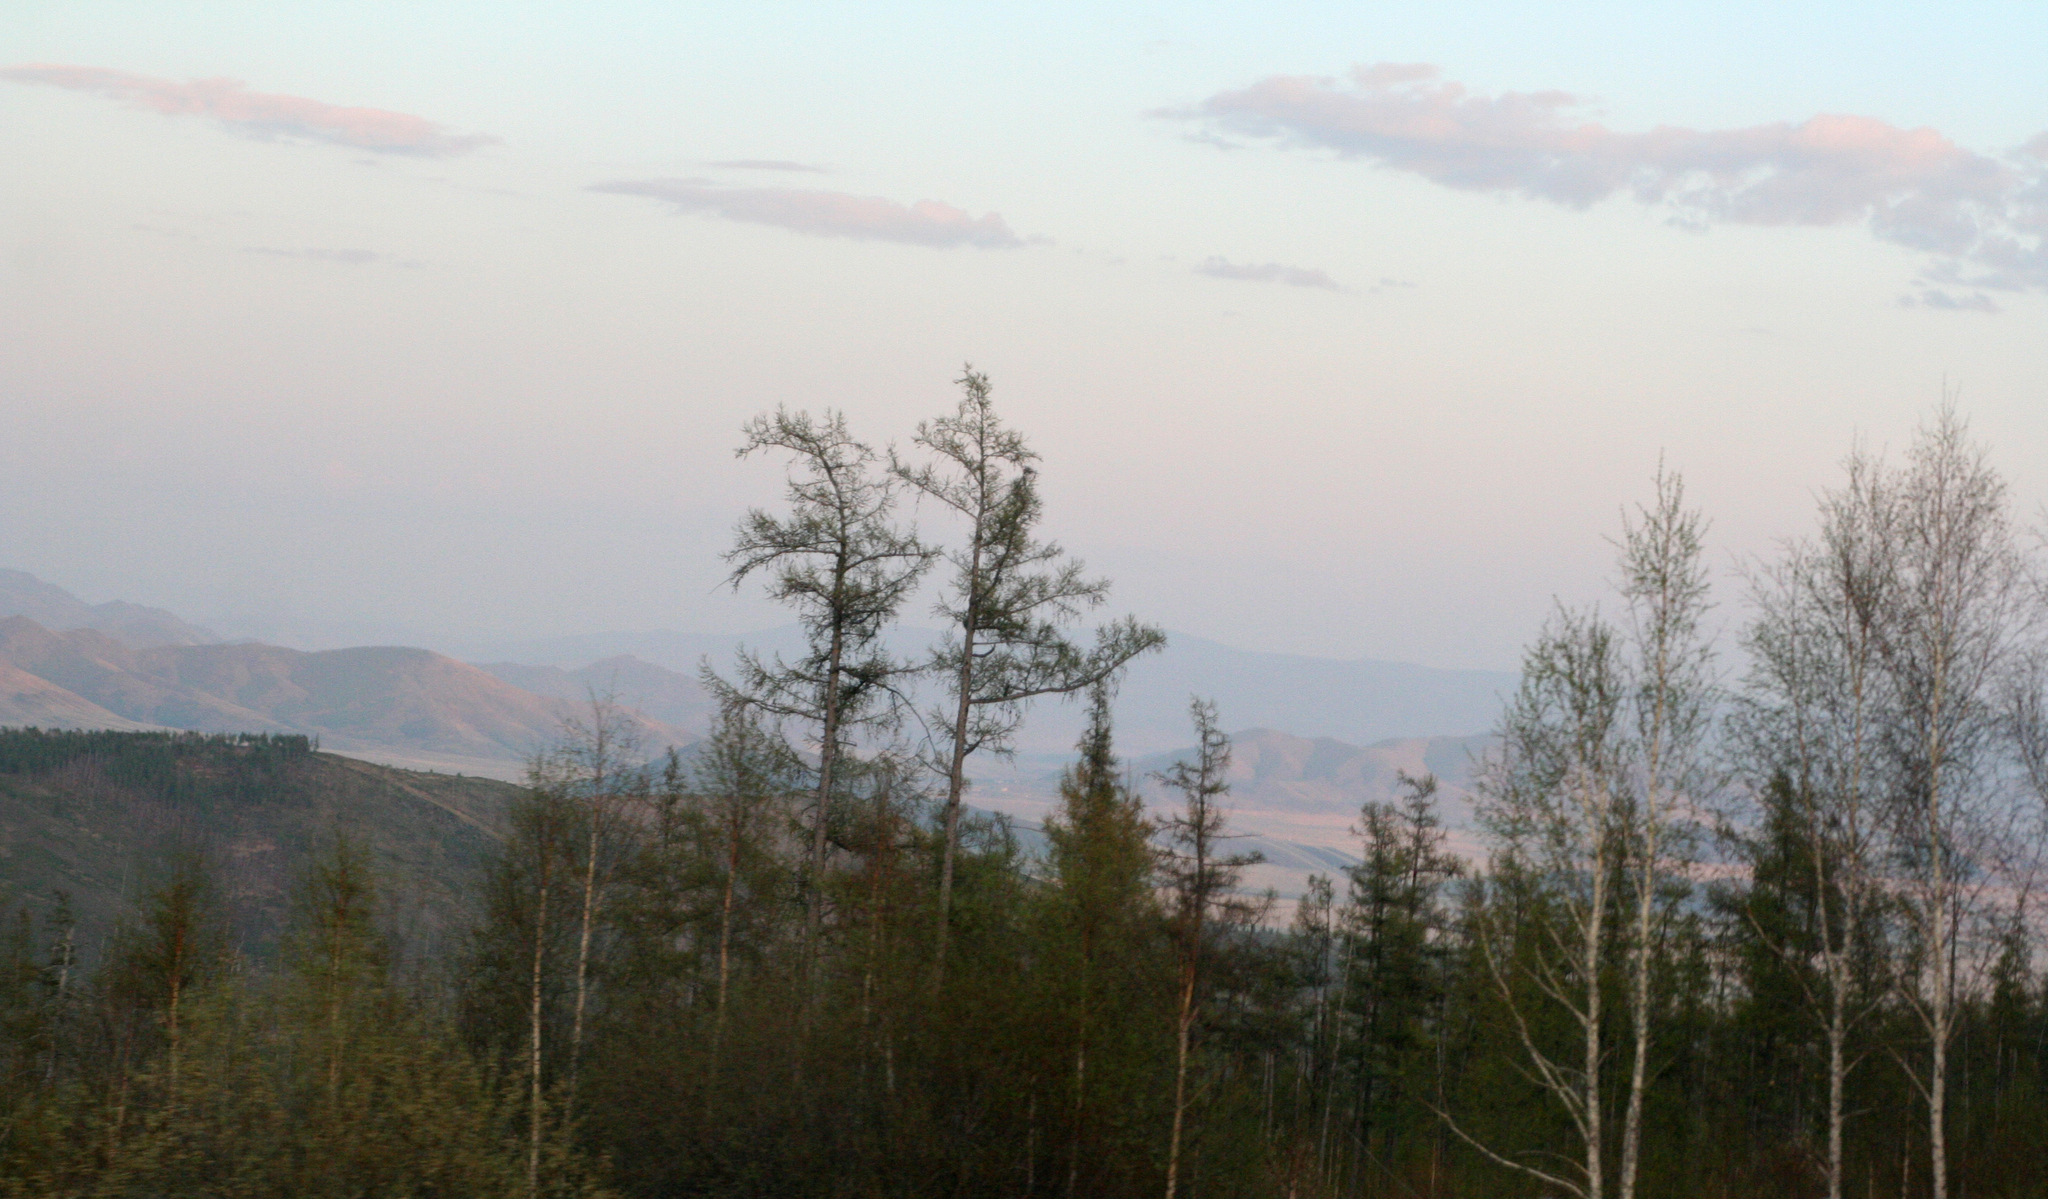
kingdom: Plantae
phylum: Tracheophyta
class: Pinopsida
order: Pinales
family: Pinaceae
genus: Larix
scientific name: Larix sibirica
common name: Siberian larch
